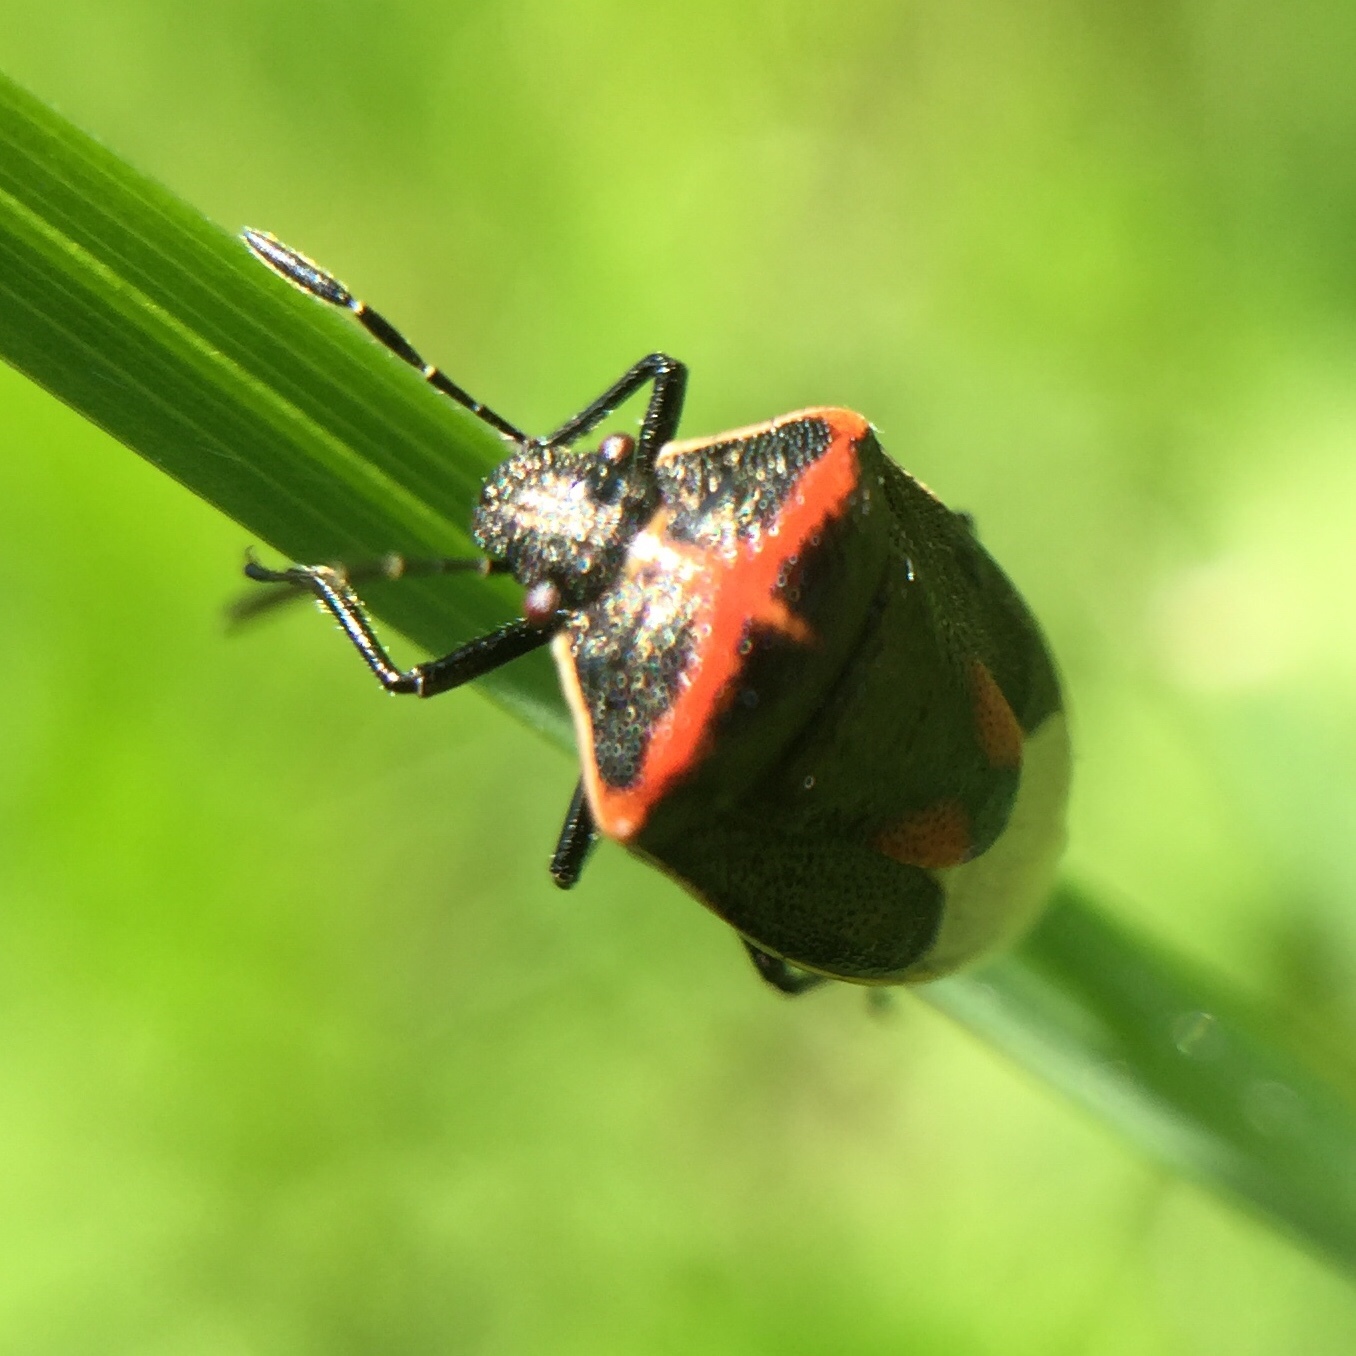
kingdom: Animalia
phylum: Arthropoda
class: Insecta
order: Hemiptera
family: Pentatomidae
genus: Cosmopepla
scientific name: Cosmopepla lintneriana
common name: Twice-stabbed stink bug
